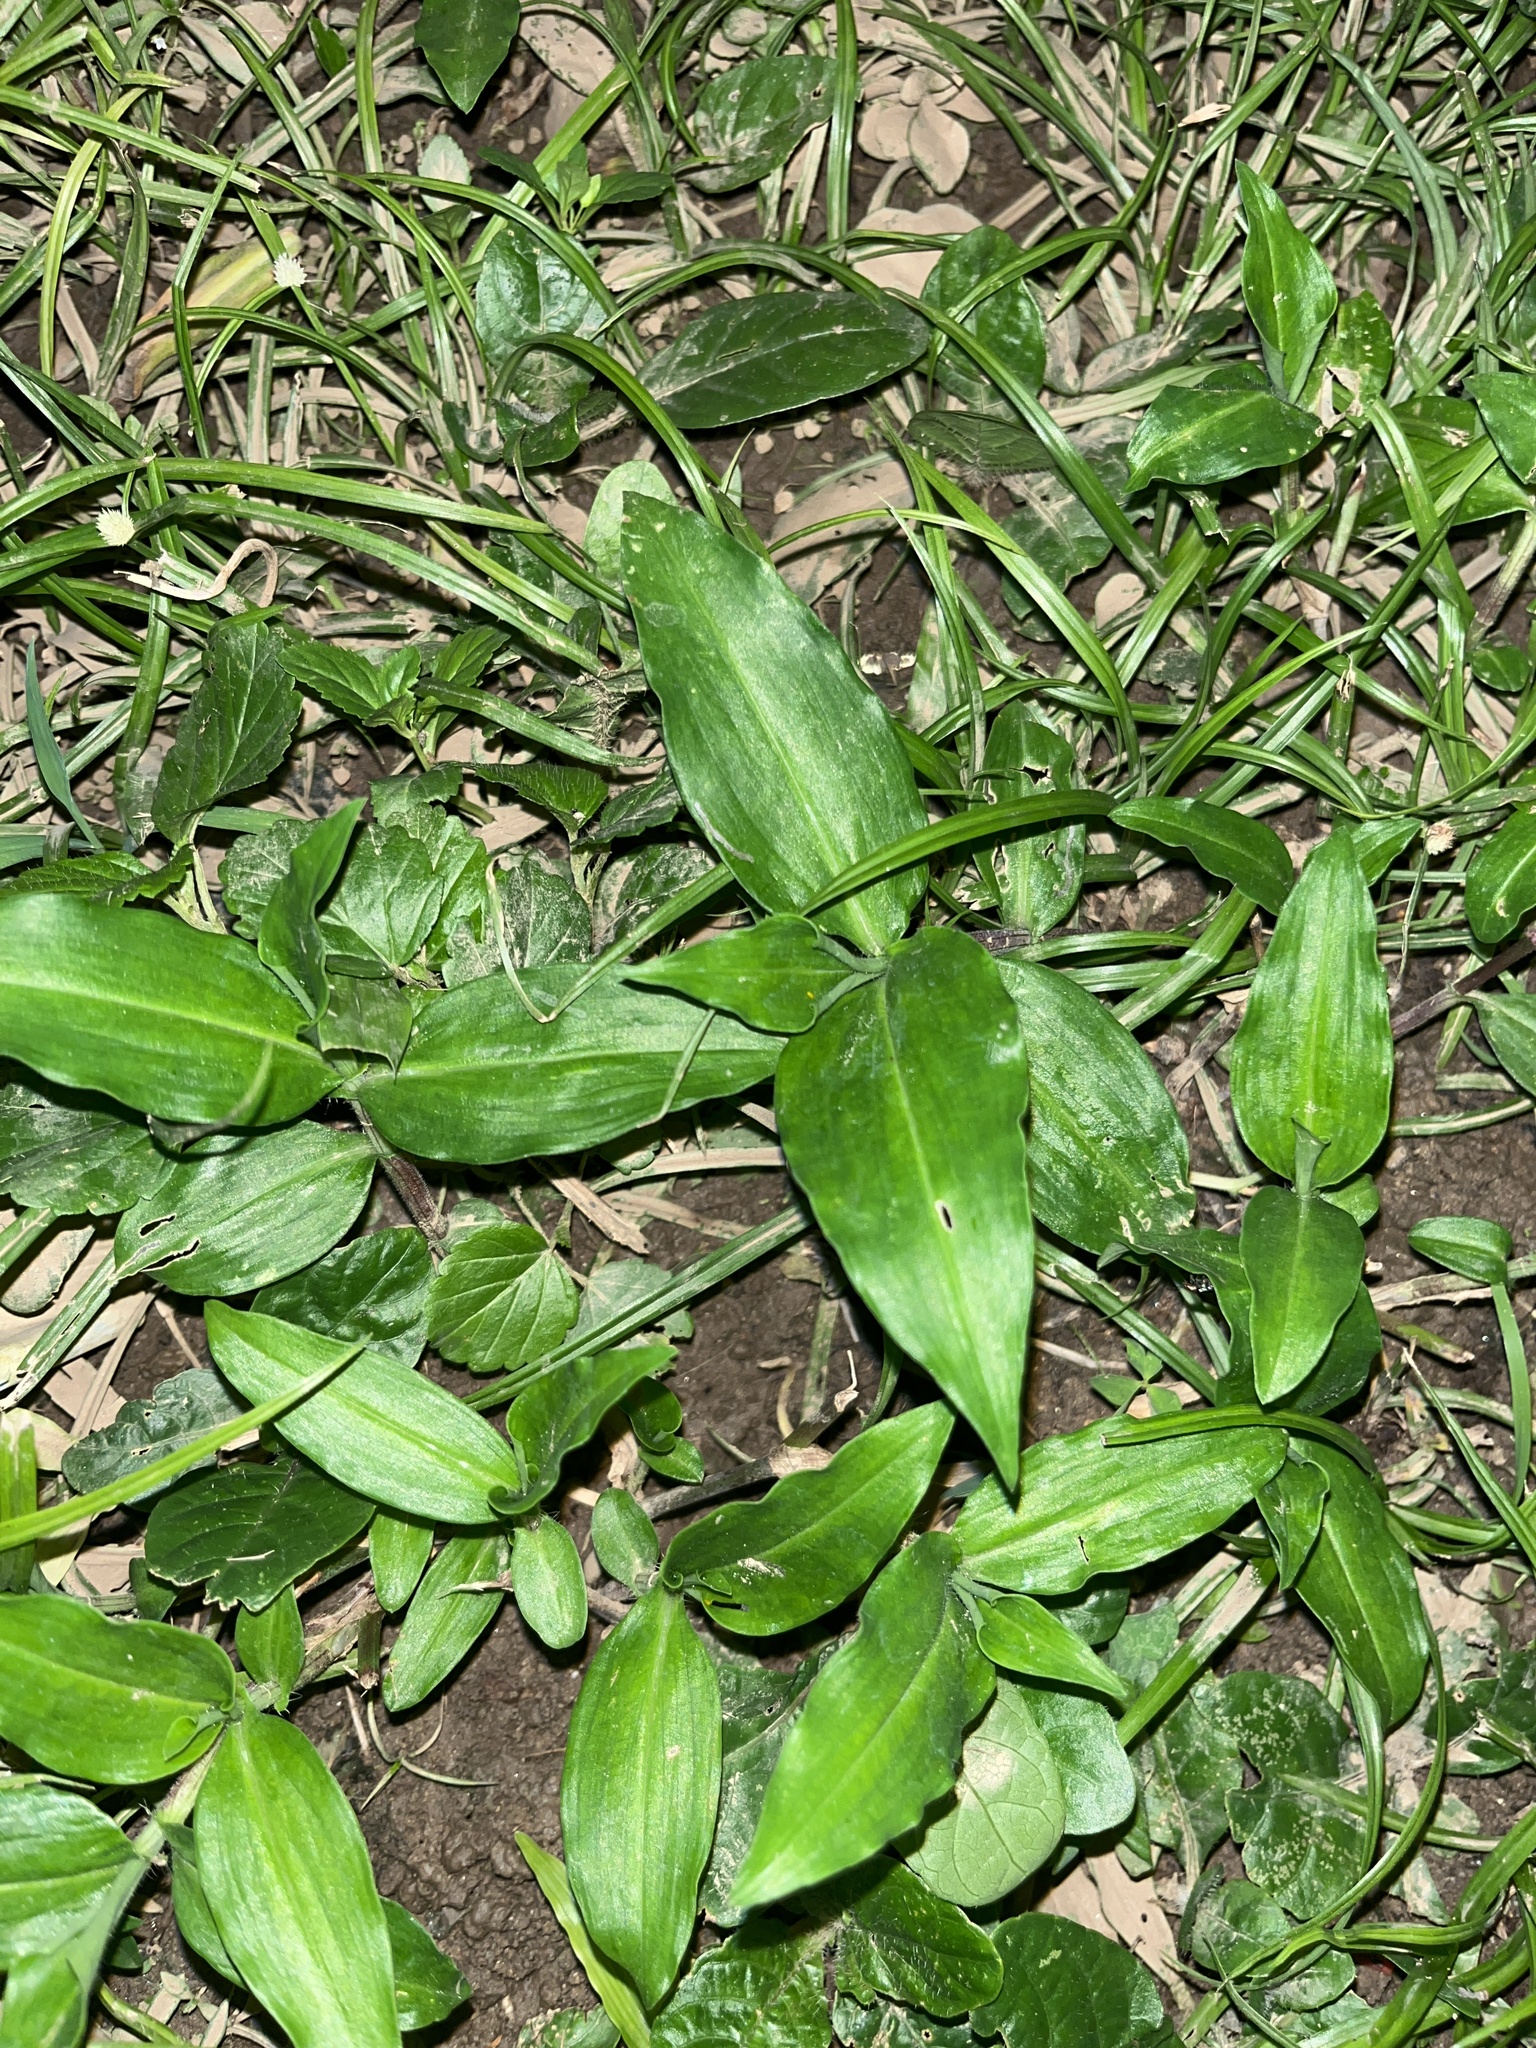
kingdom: Plantae
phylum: Tracheophyta
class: Liliopsida
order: Commelinales
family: Commelinaceae
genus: Commelina
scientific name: Commelina erecta
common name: Blousel blommetjie
